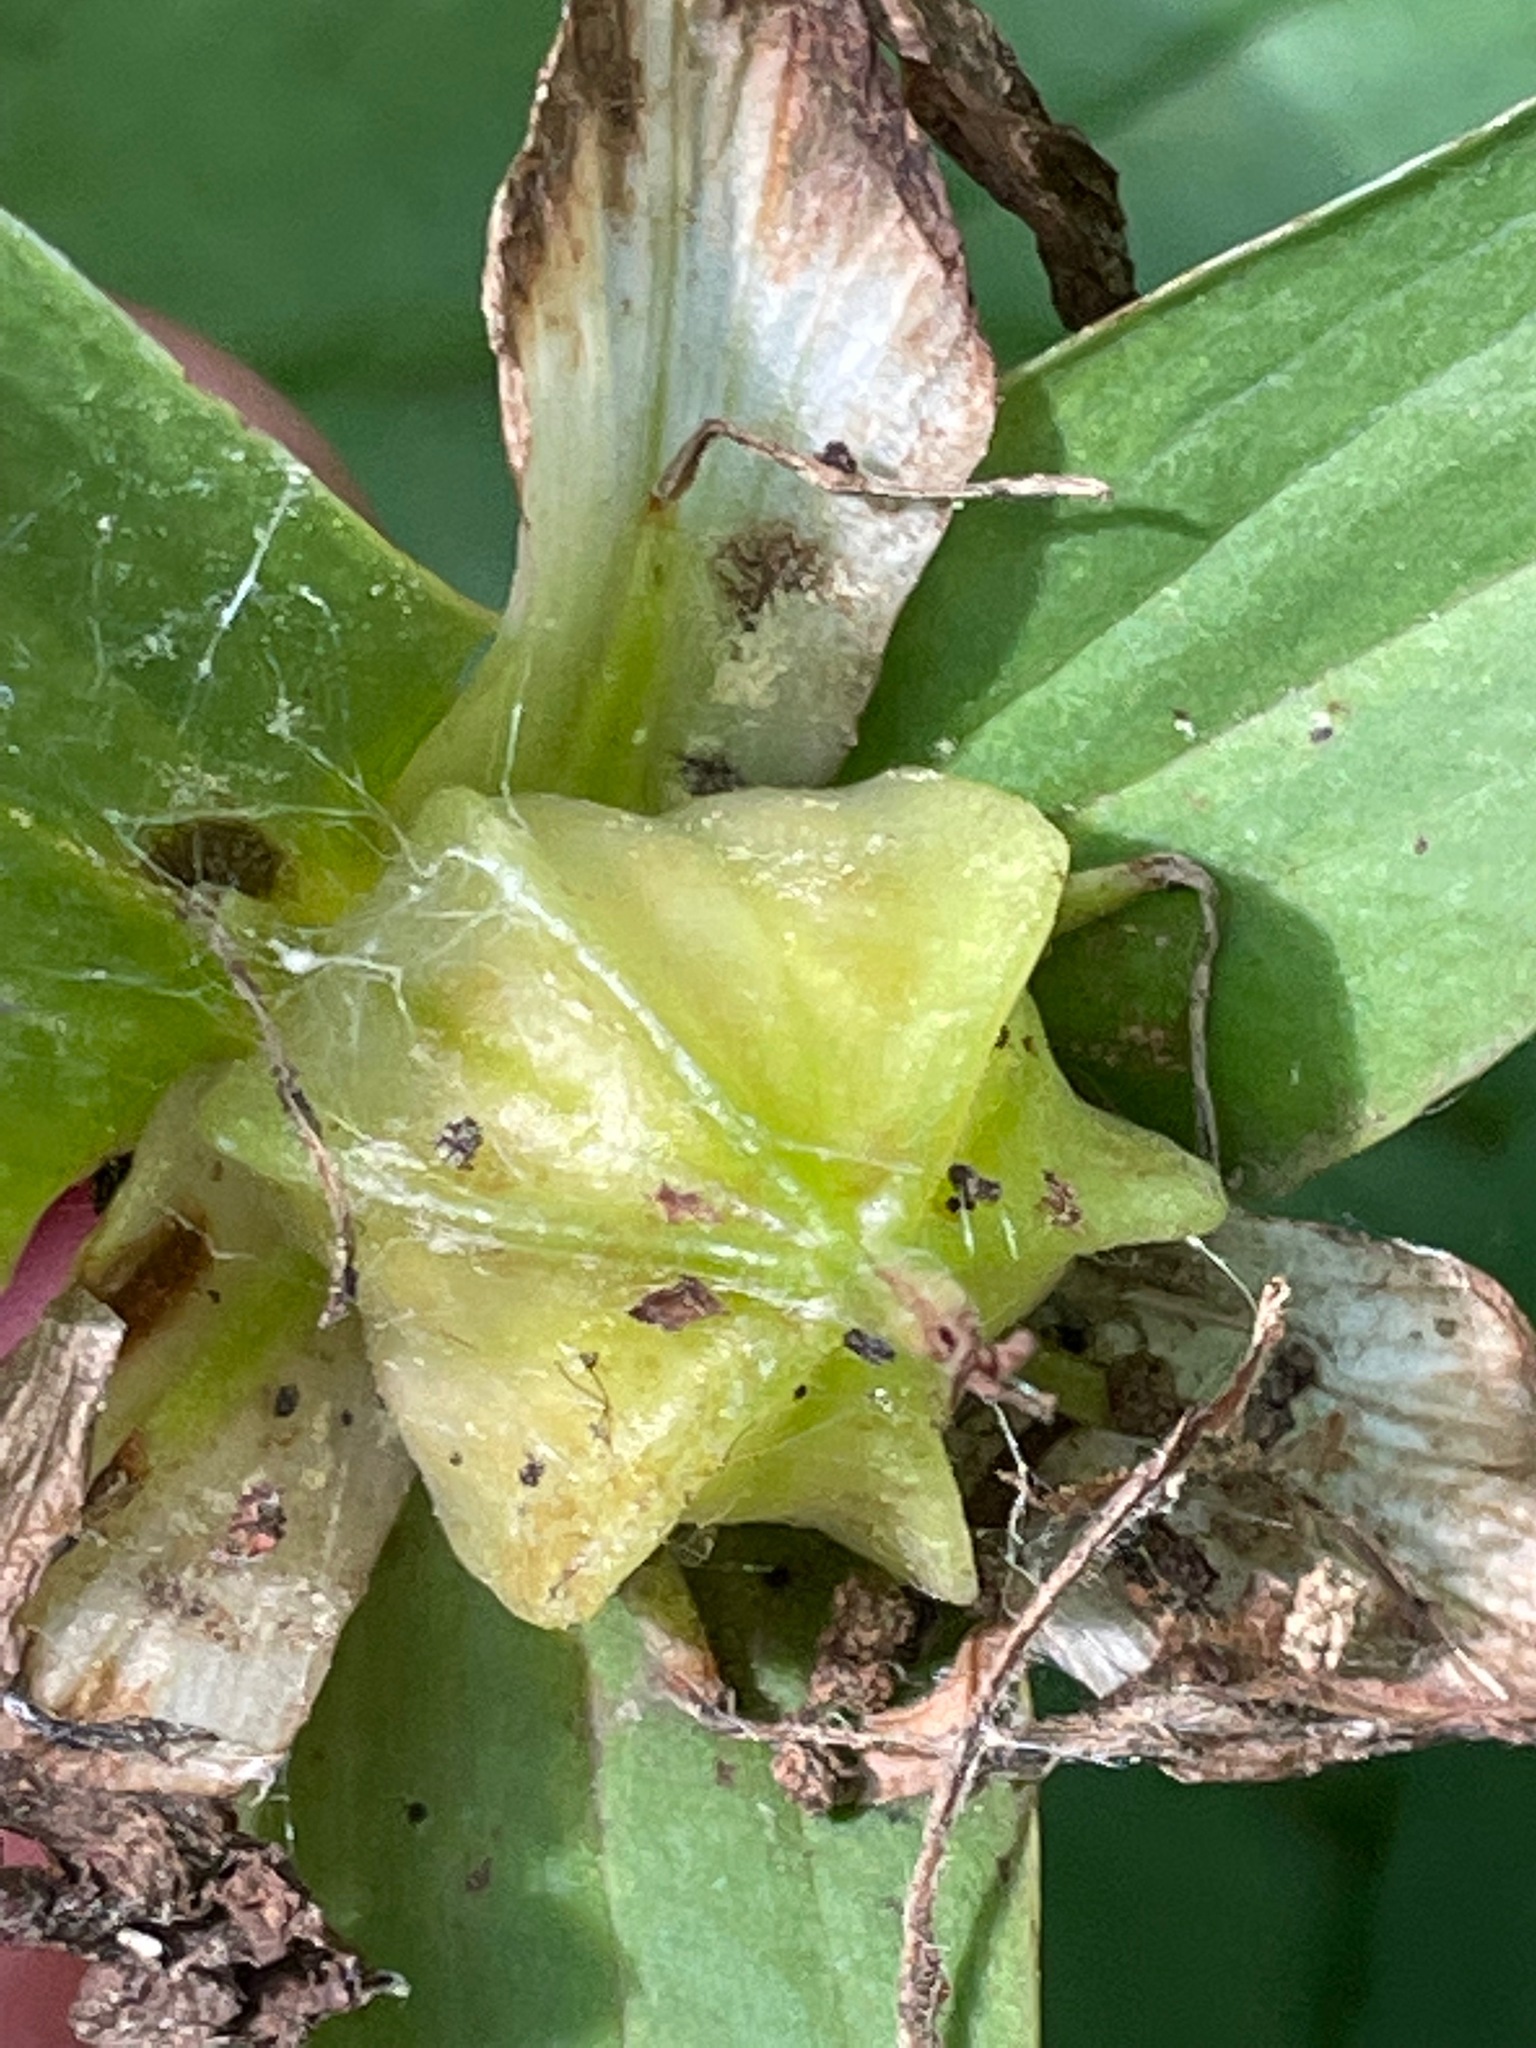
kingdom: Plantae
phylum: Tracheophyta
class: Liliopsida
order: Liliales
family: Melanthiaceae
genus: Trillium
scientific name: Trillium grandiflorum
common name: Great white trillium
